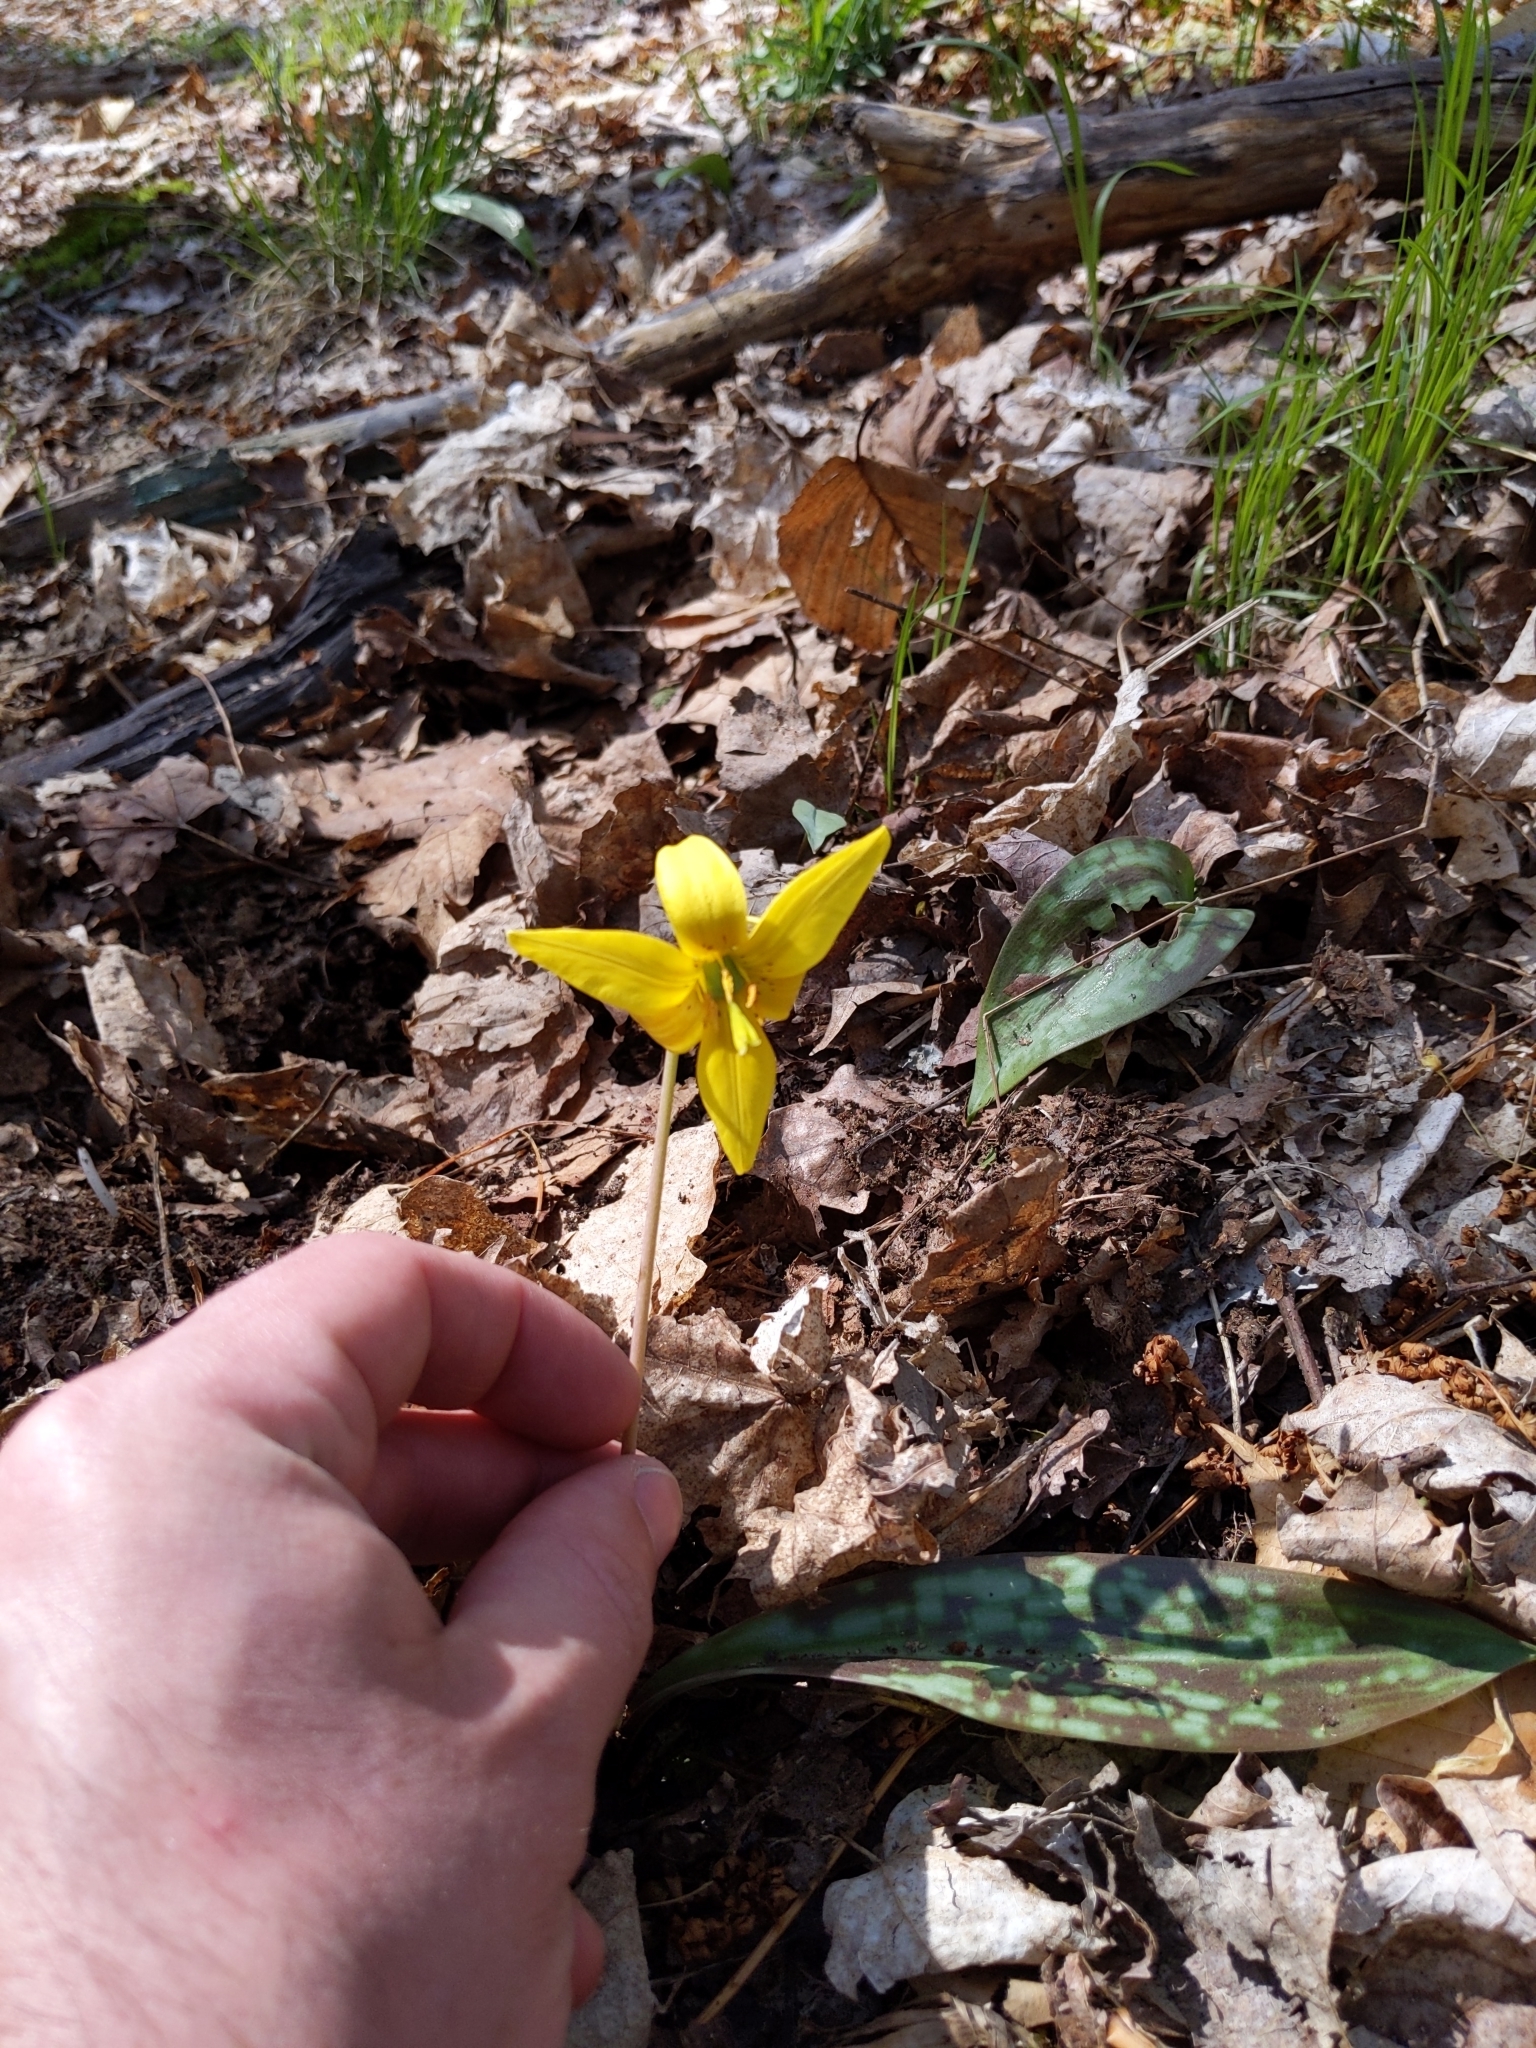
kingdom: Plantae
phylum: Tracheophyta
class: Liliopsida
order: Liliales
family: Liliaceae
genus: Erythronium
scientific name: Erythronium americanum
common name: Yellow adder's-tongue
